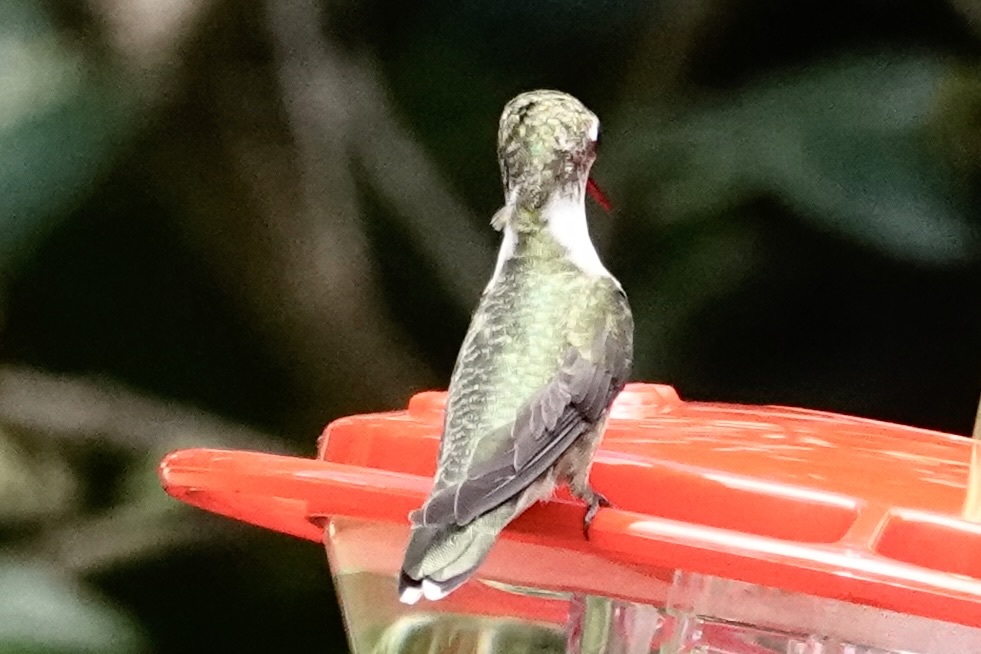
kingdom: Animalia
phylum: Chordata
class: Aves
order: Apodiformes
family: Trochilidae
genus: Archilochus
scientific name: Archilochus colubris
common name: Ruby-throated hummingbird
